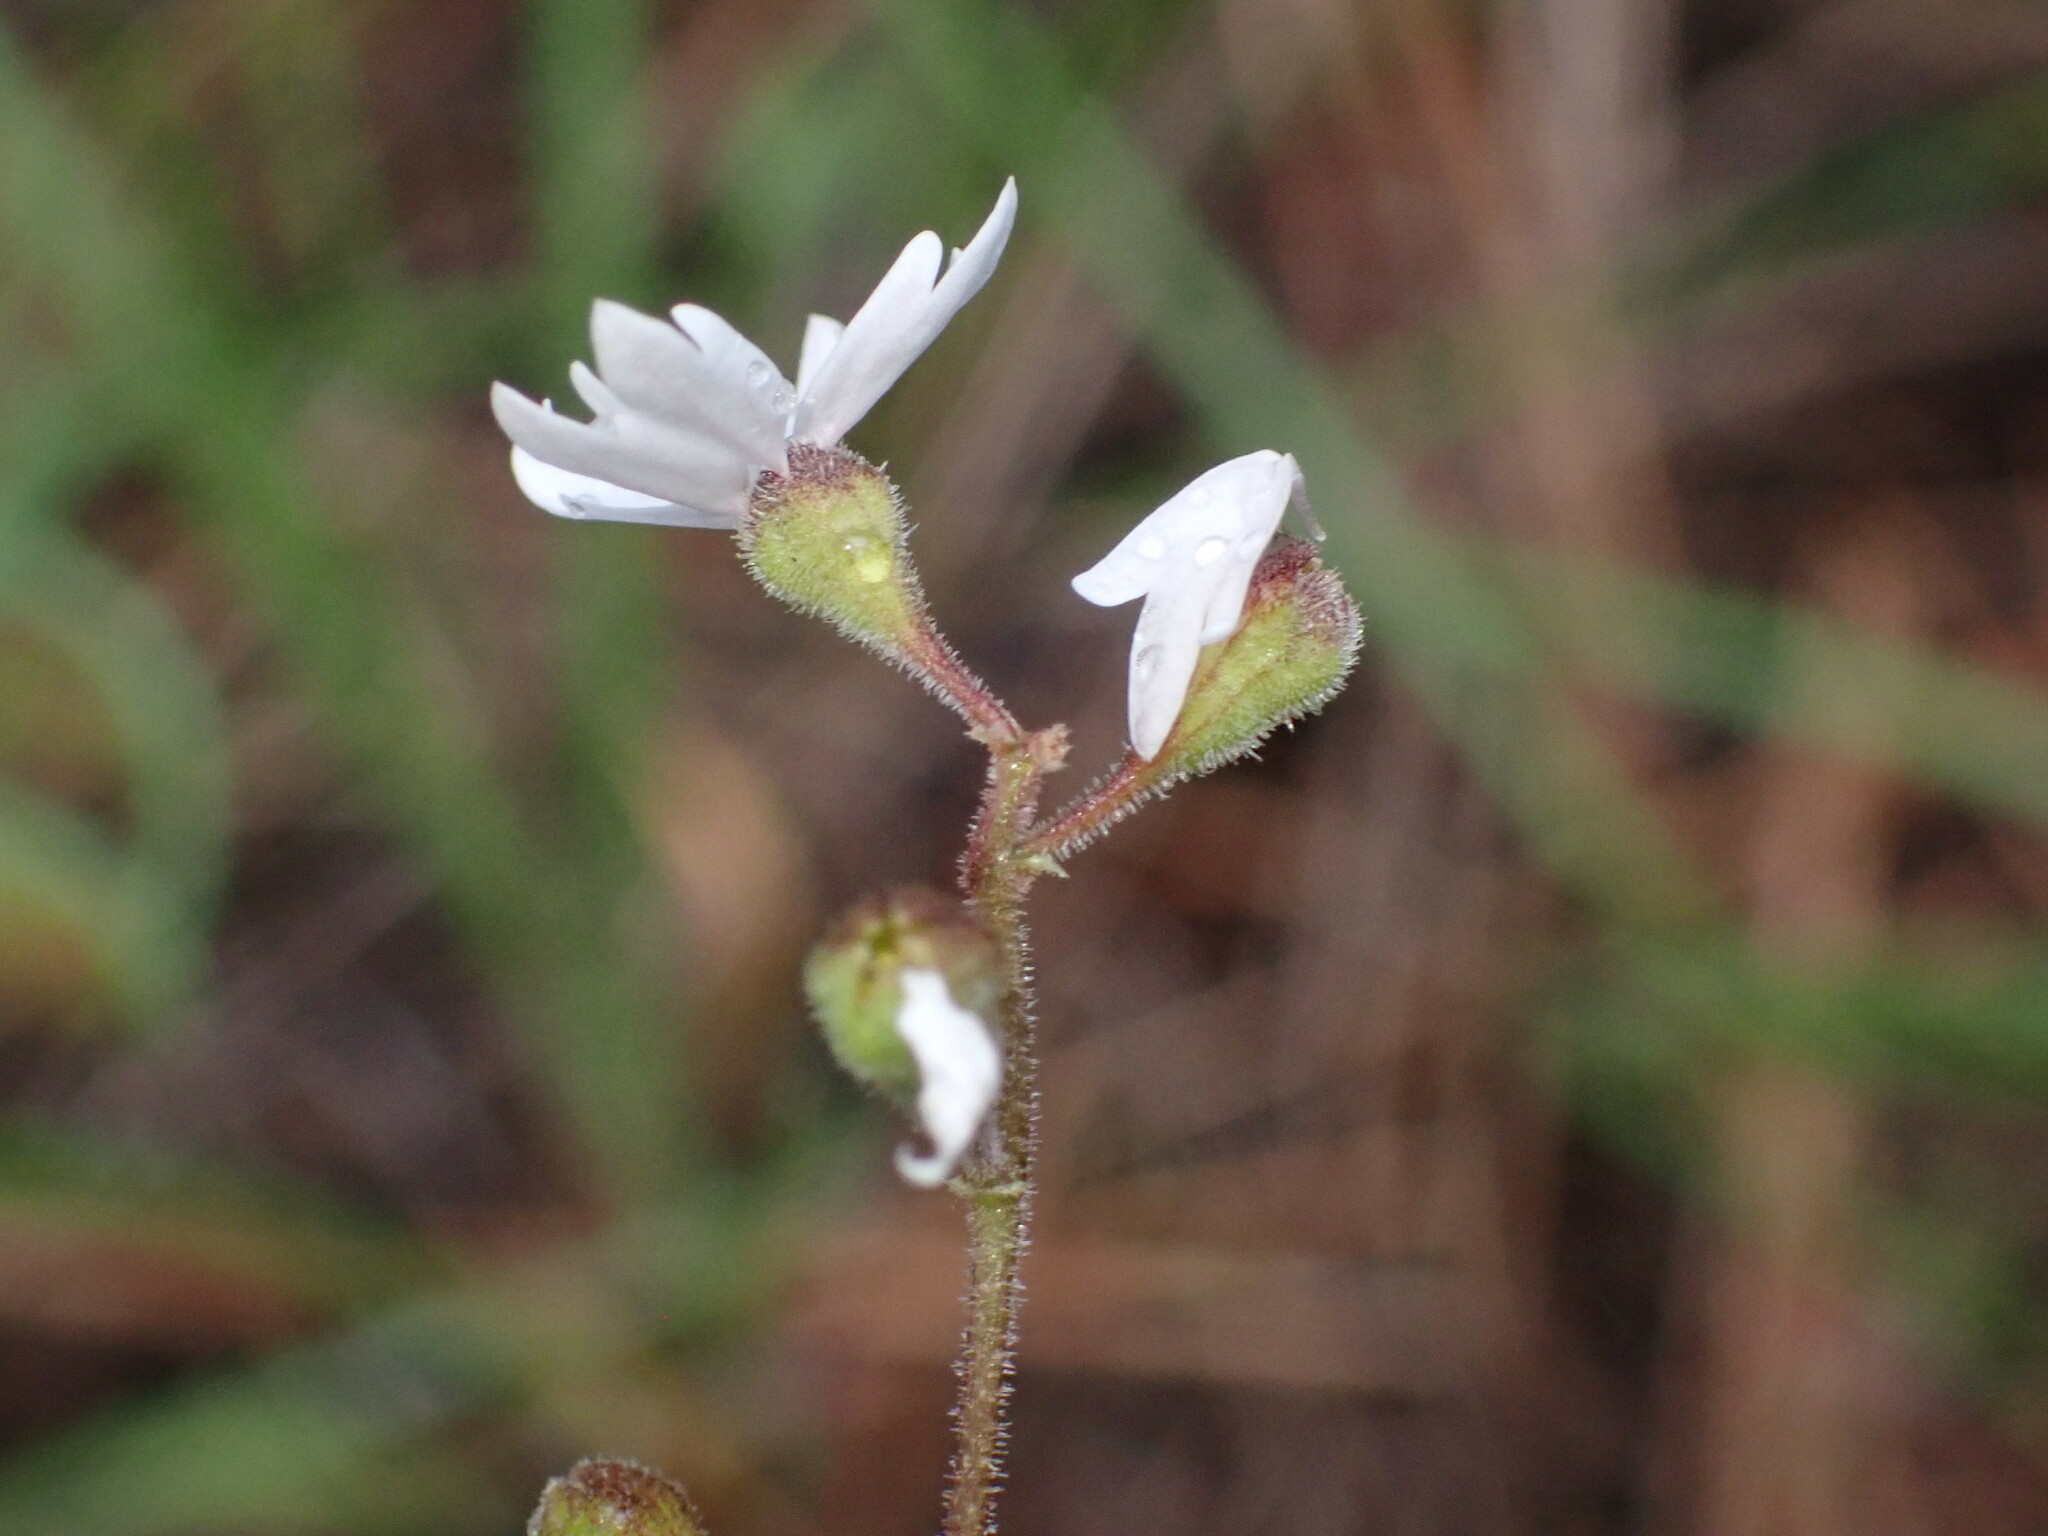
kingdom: Plantae
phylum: Tracheophyta
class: Magnoliopsida
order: Saxifragales
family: Saxifragaceae
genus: Lithophragma
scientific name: Lithophragma parviflorum
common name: Small-flowered fringe-cup
